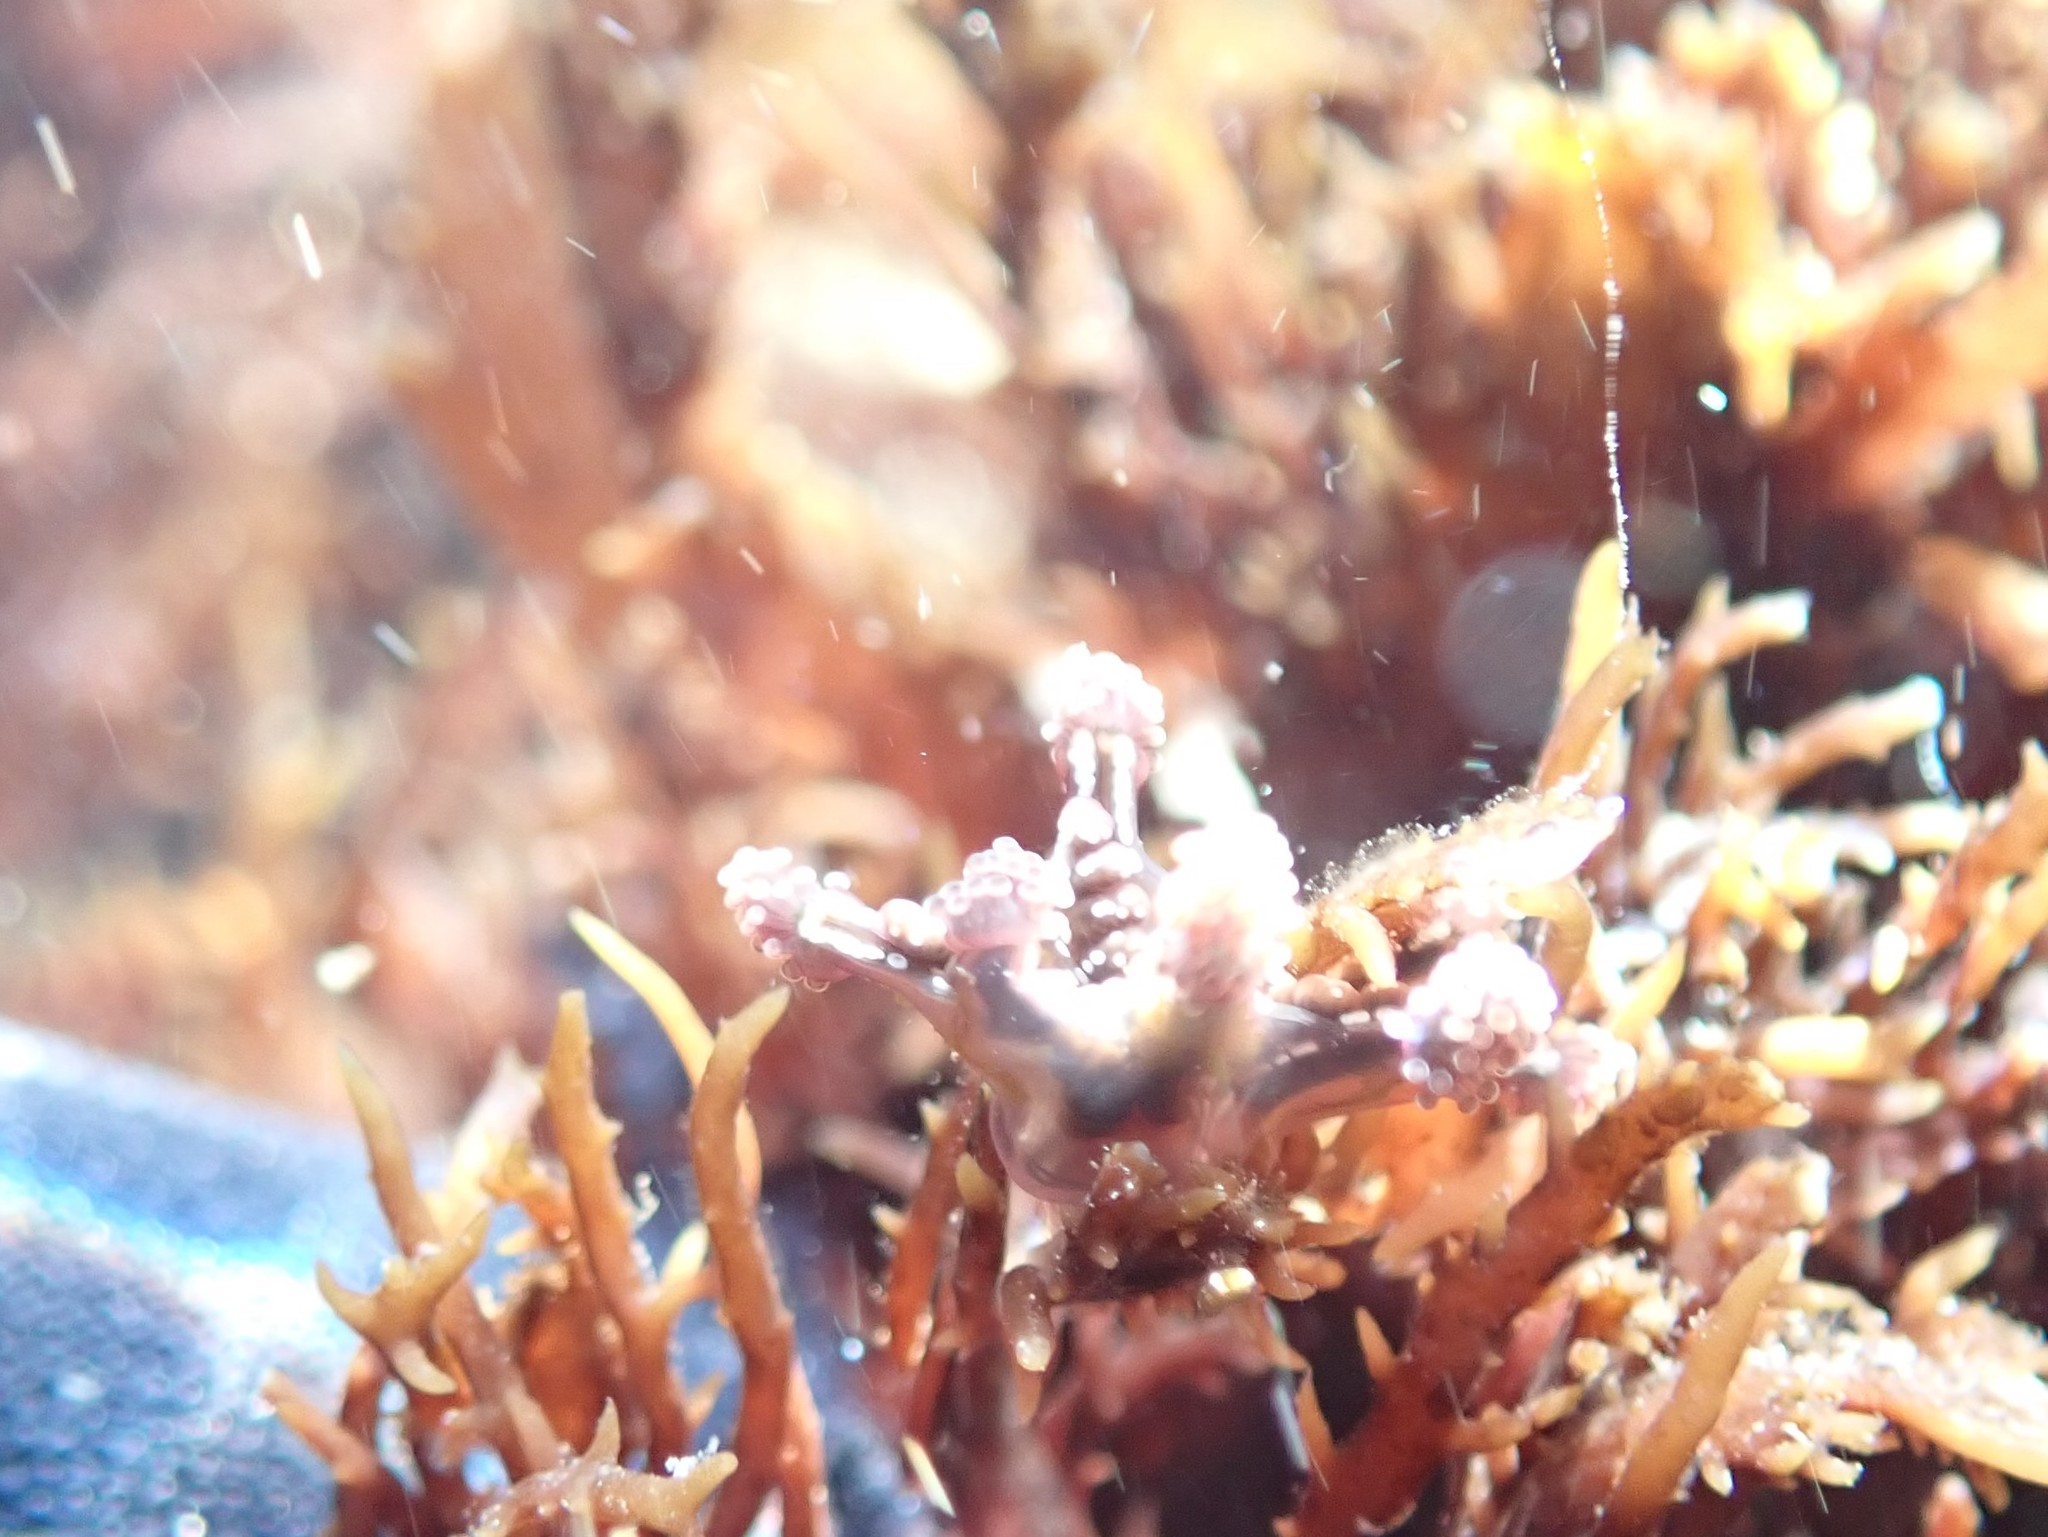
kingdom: Animalia
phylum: Cnidaria
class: Staurozoa
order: Stauromedusae
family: Kishinouyeidae
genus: Calvadosia
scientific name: Calvadosia cruxmelitensis
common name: St. john's jellyfish
